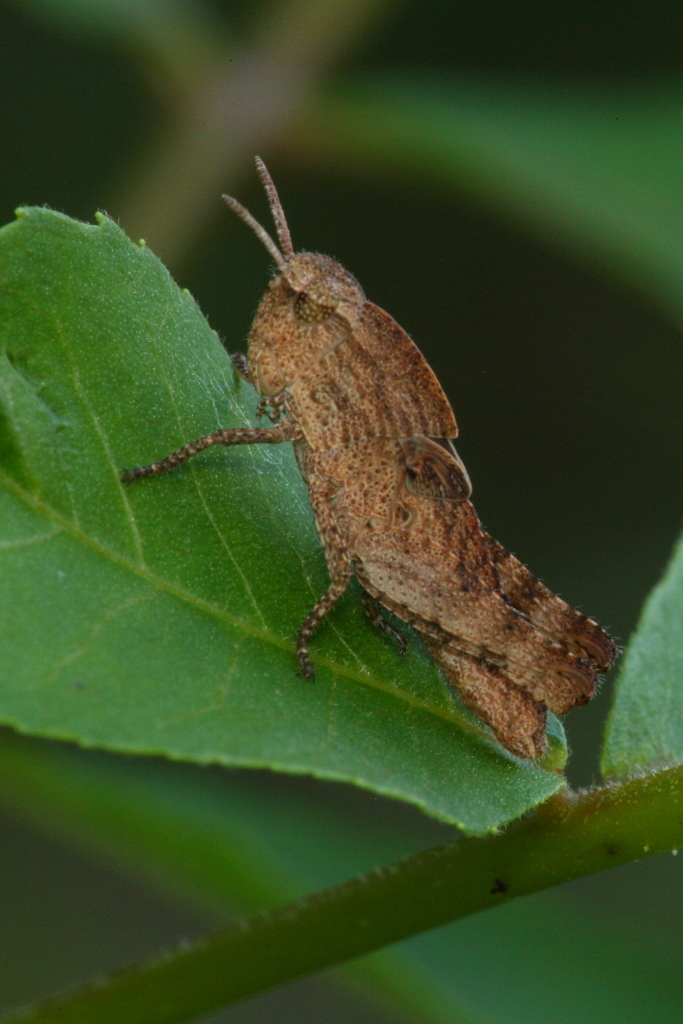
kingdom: Animalia
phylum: Arthropoda
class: Insecta
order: Orthoptera
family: Acrididae
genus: Chortophaga
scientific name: Chortophaga viridifasciata
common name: Green-striped grasshopper
